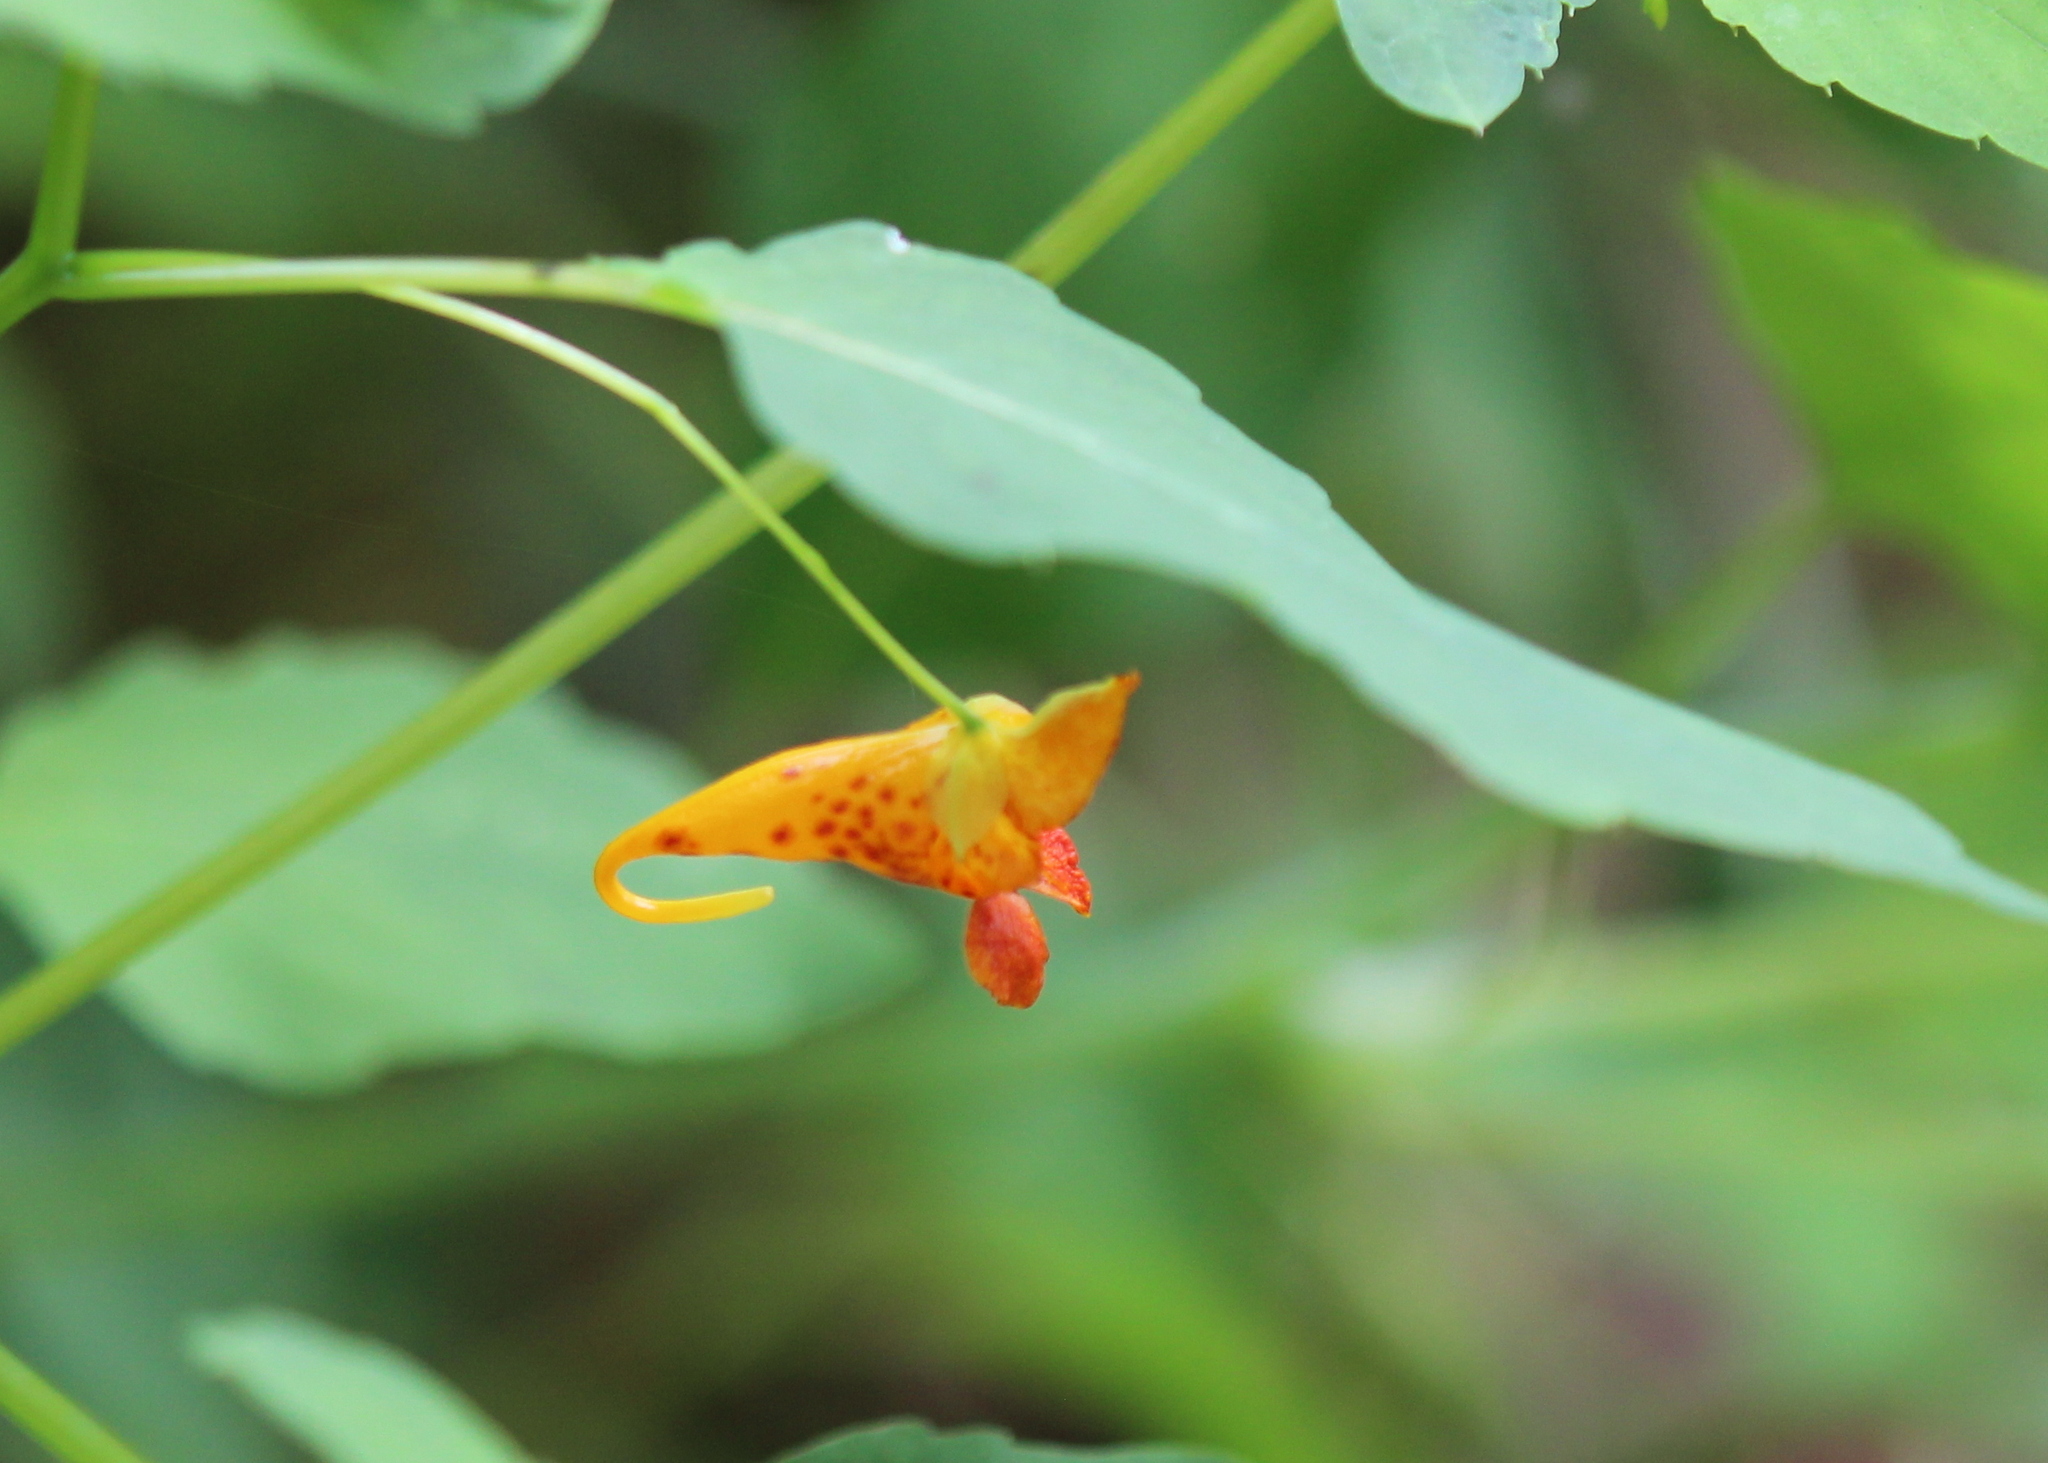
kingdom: Plantae
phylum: Tracheophyta
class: Magnoliopsida
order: Ericales
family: Balsaminaceae
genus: Impatiens
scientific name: Impatiens capensis
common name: Orange balsam
